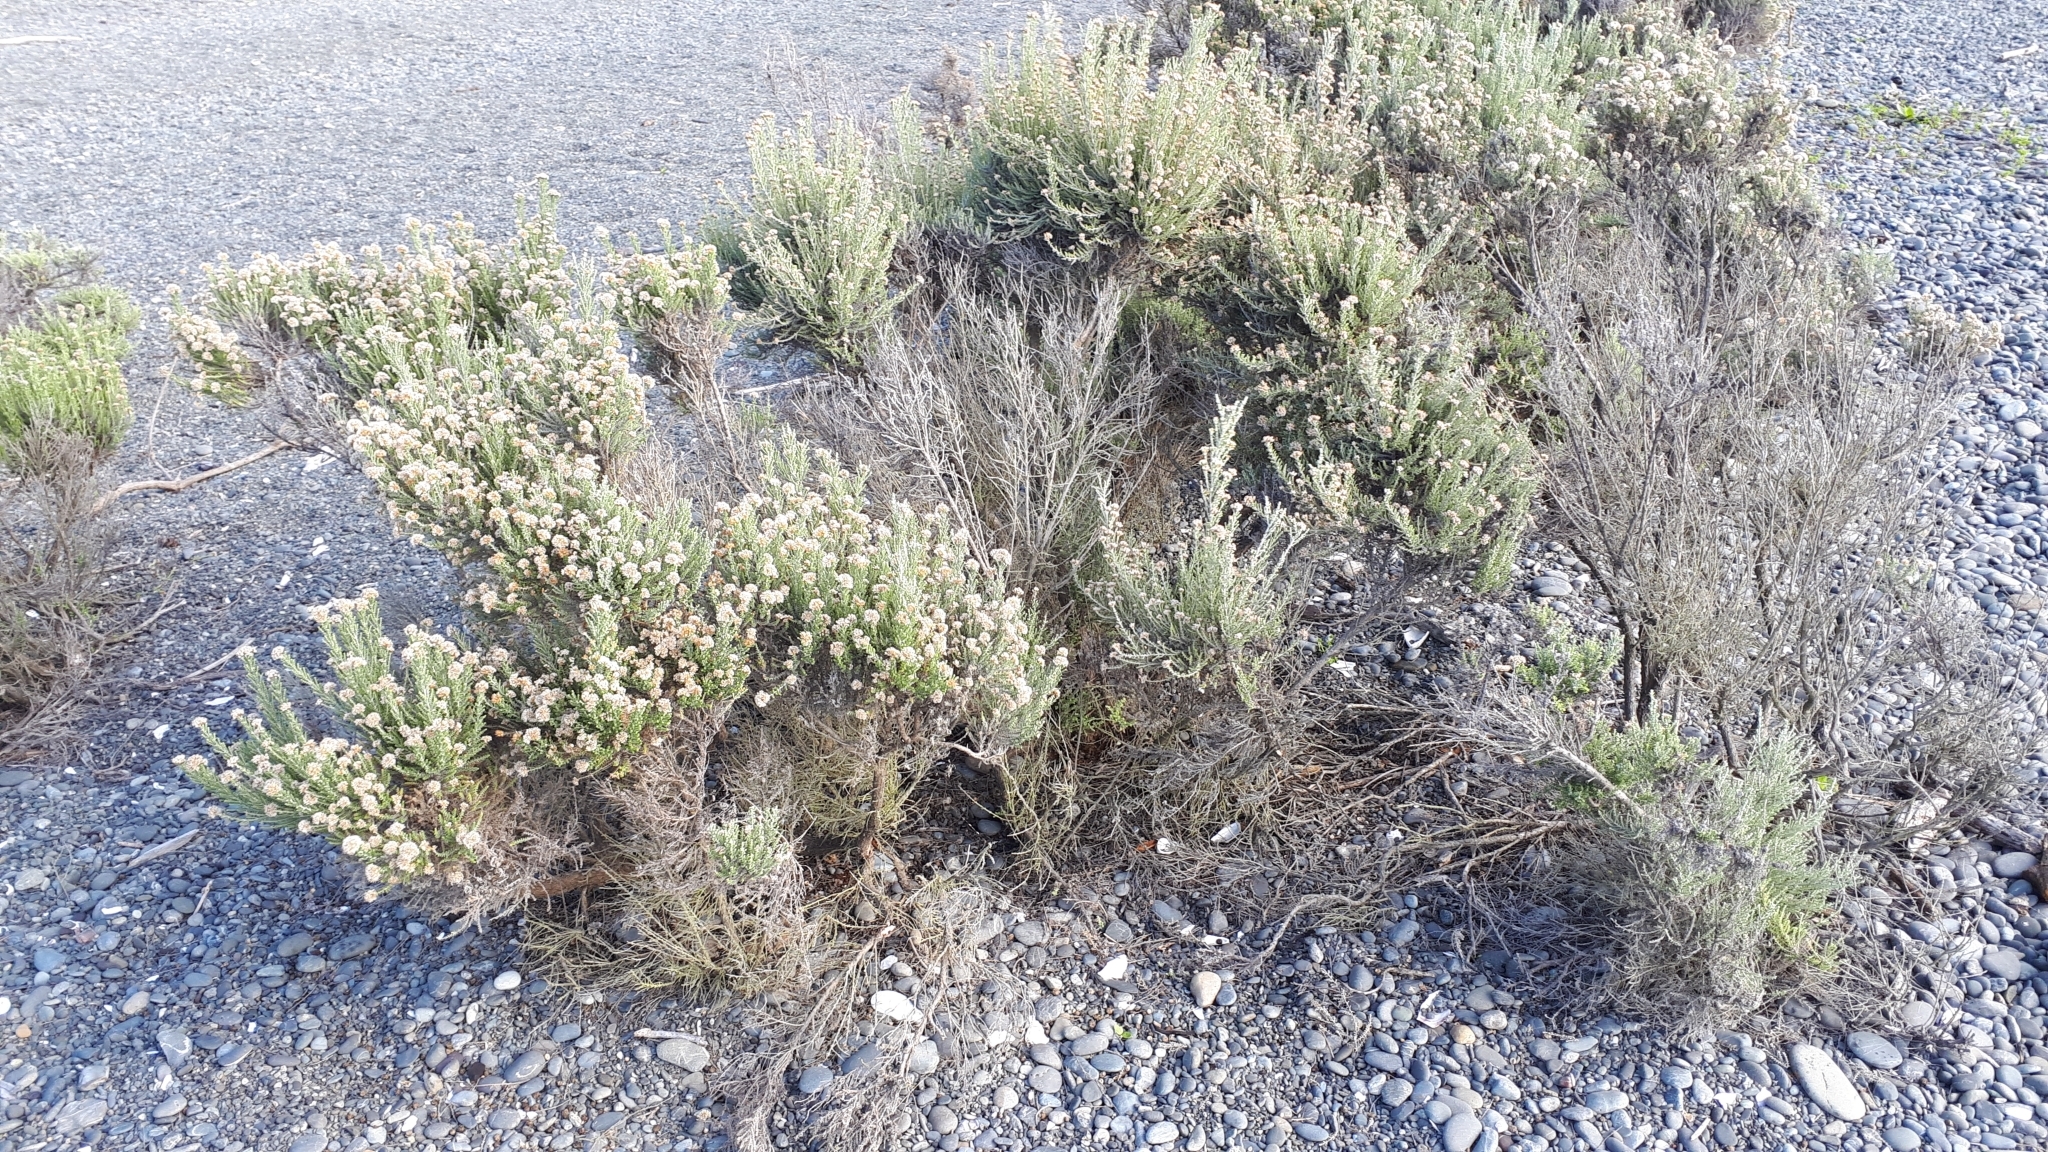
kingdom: Plantae
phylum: Tracheophyta
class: Magnoliopsida
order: Asterales
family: Asteraceae
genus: Ozothamnus
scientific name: Ozothamnus leptophyllus
